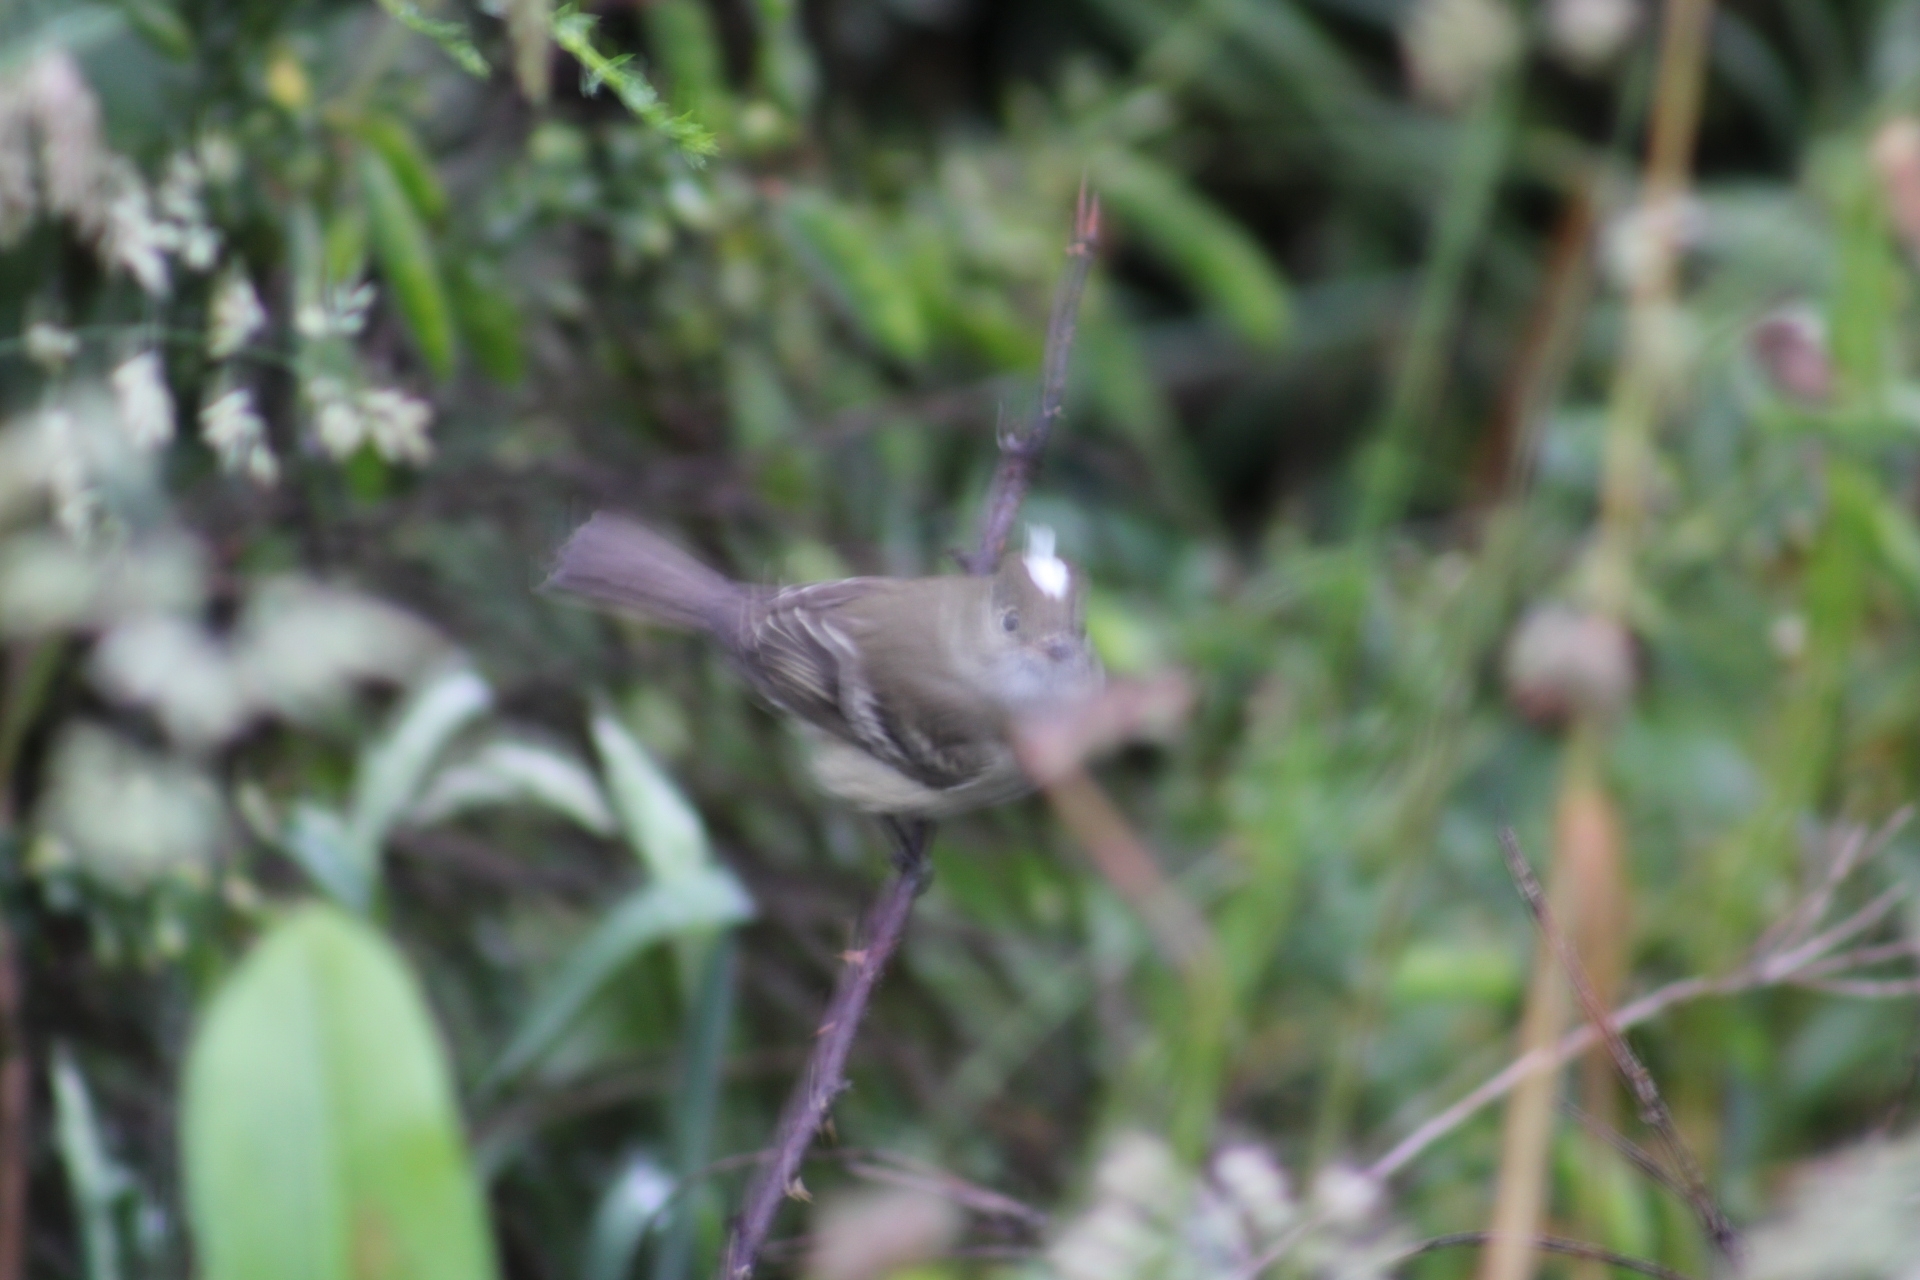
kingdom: Animalia
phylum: Chordata
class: Aves
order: Passeriformes
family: Tyrannidae
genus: Elaenia
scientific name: Elaenia albiceps
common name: White-crested elaenia
